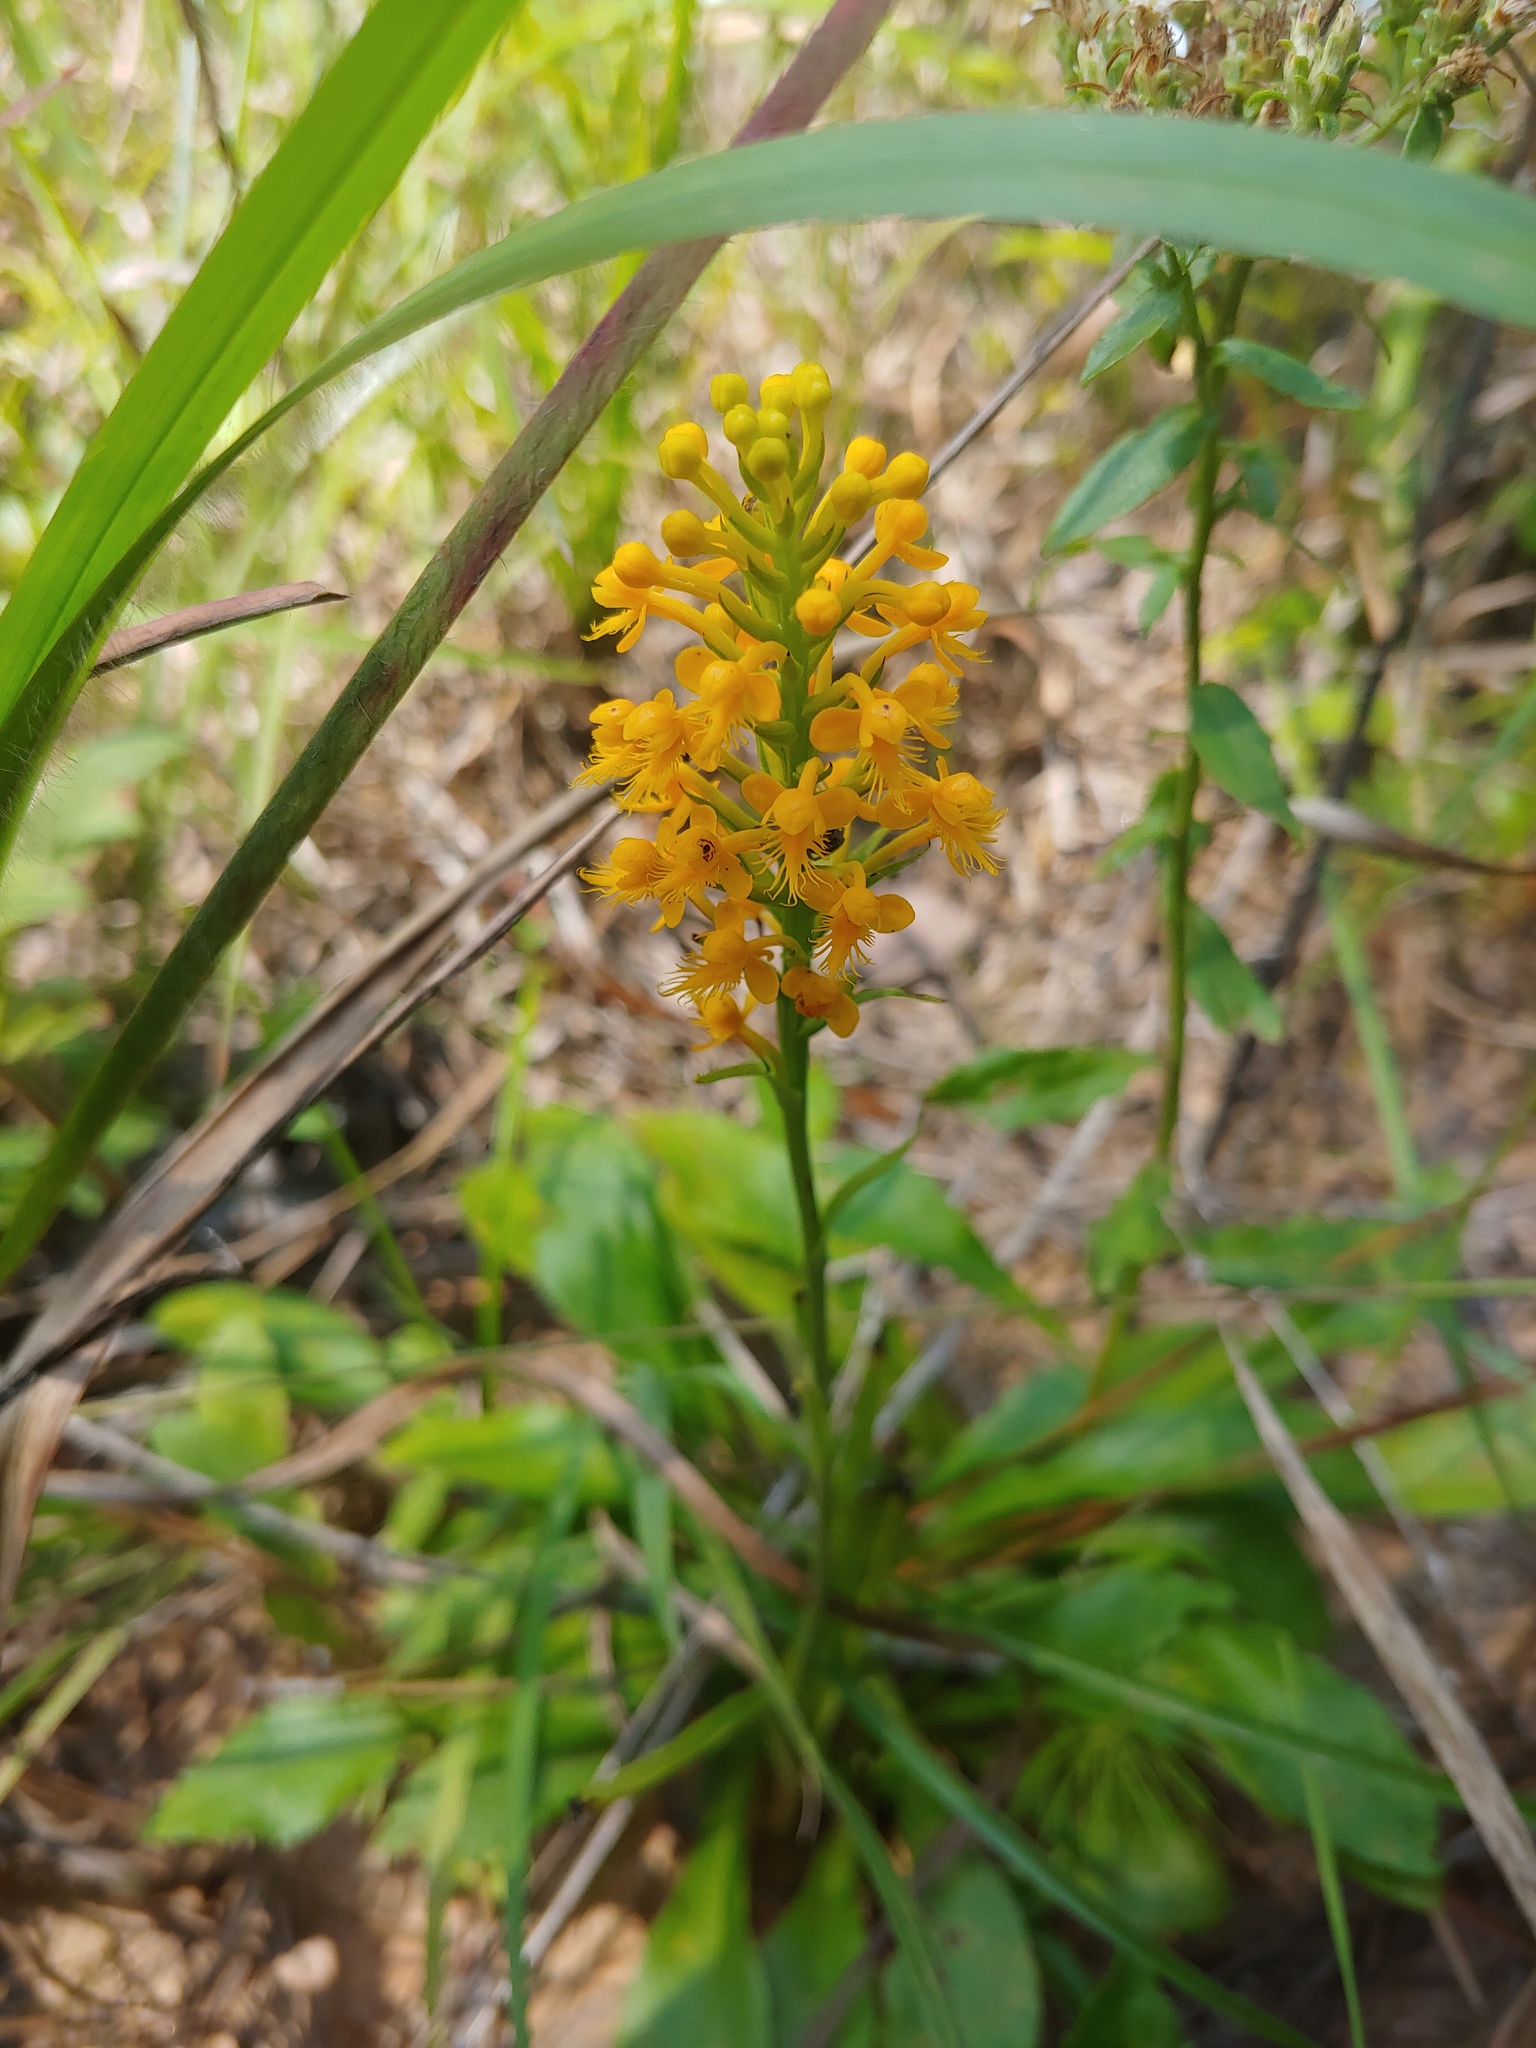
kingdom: Plantae
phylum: Tracheophyta
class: Liliopsida
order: Asparagales
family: Orchidaceae
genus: Platanthera
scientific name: Platanthera cristata
